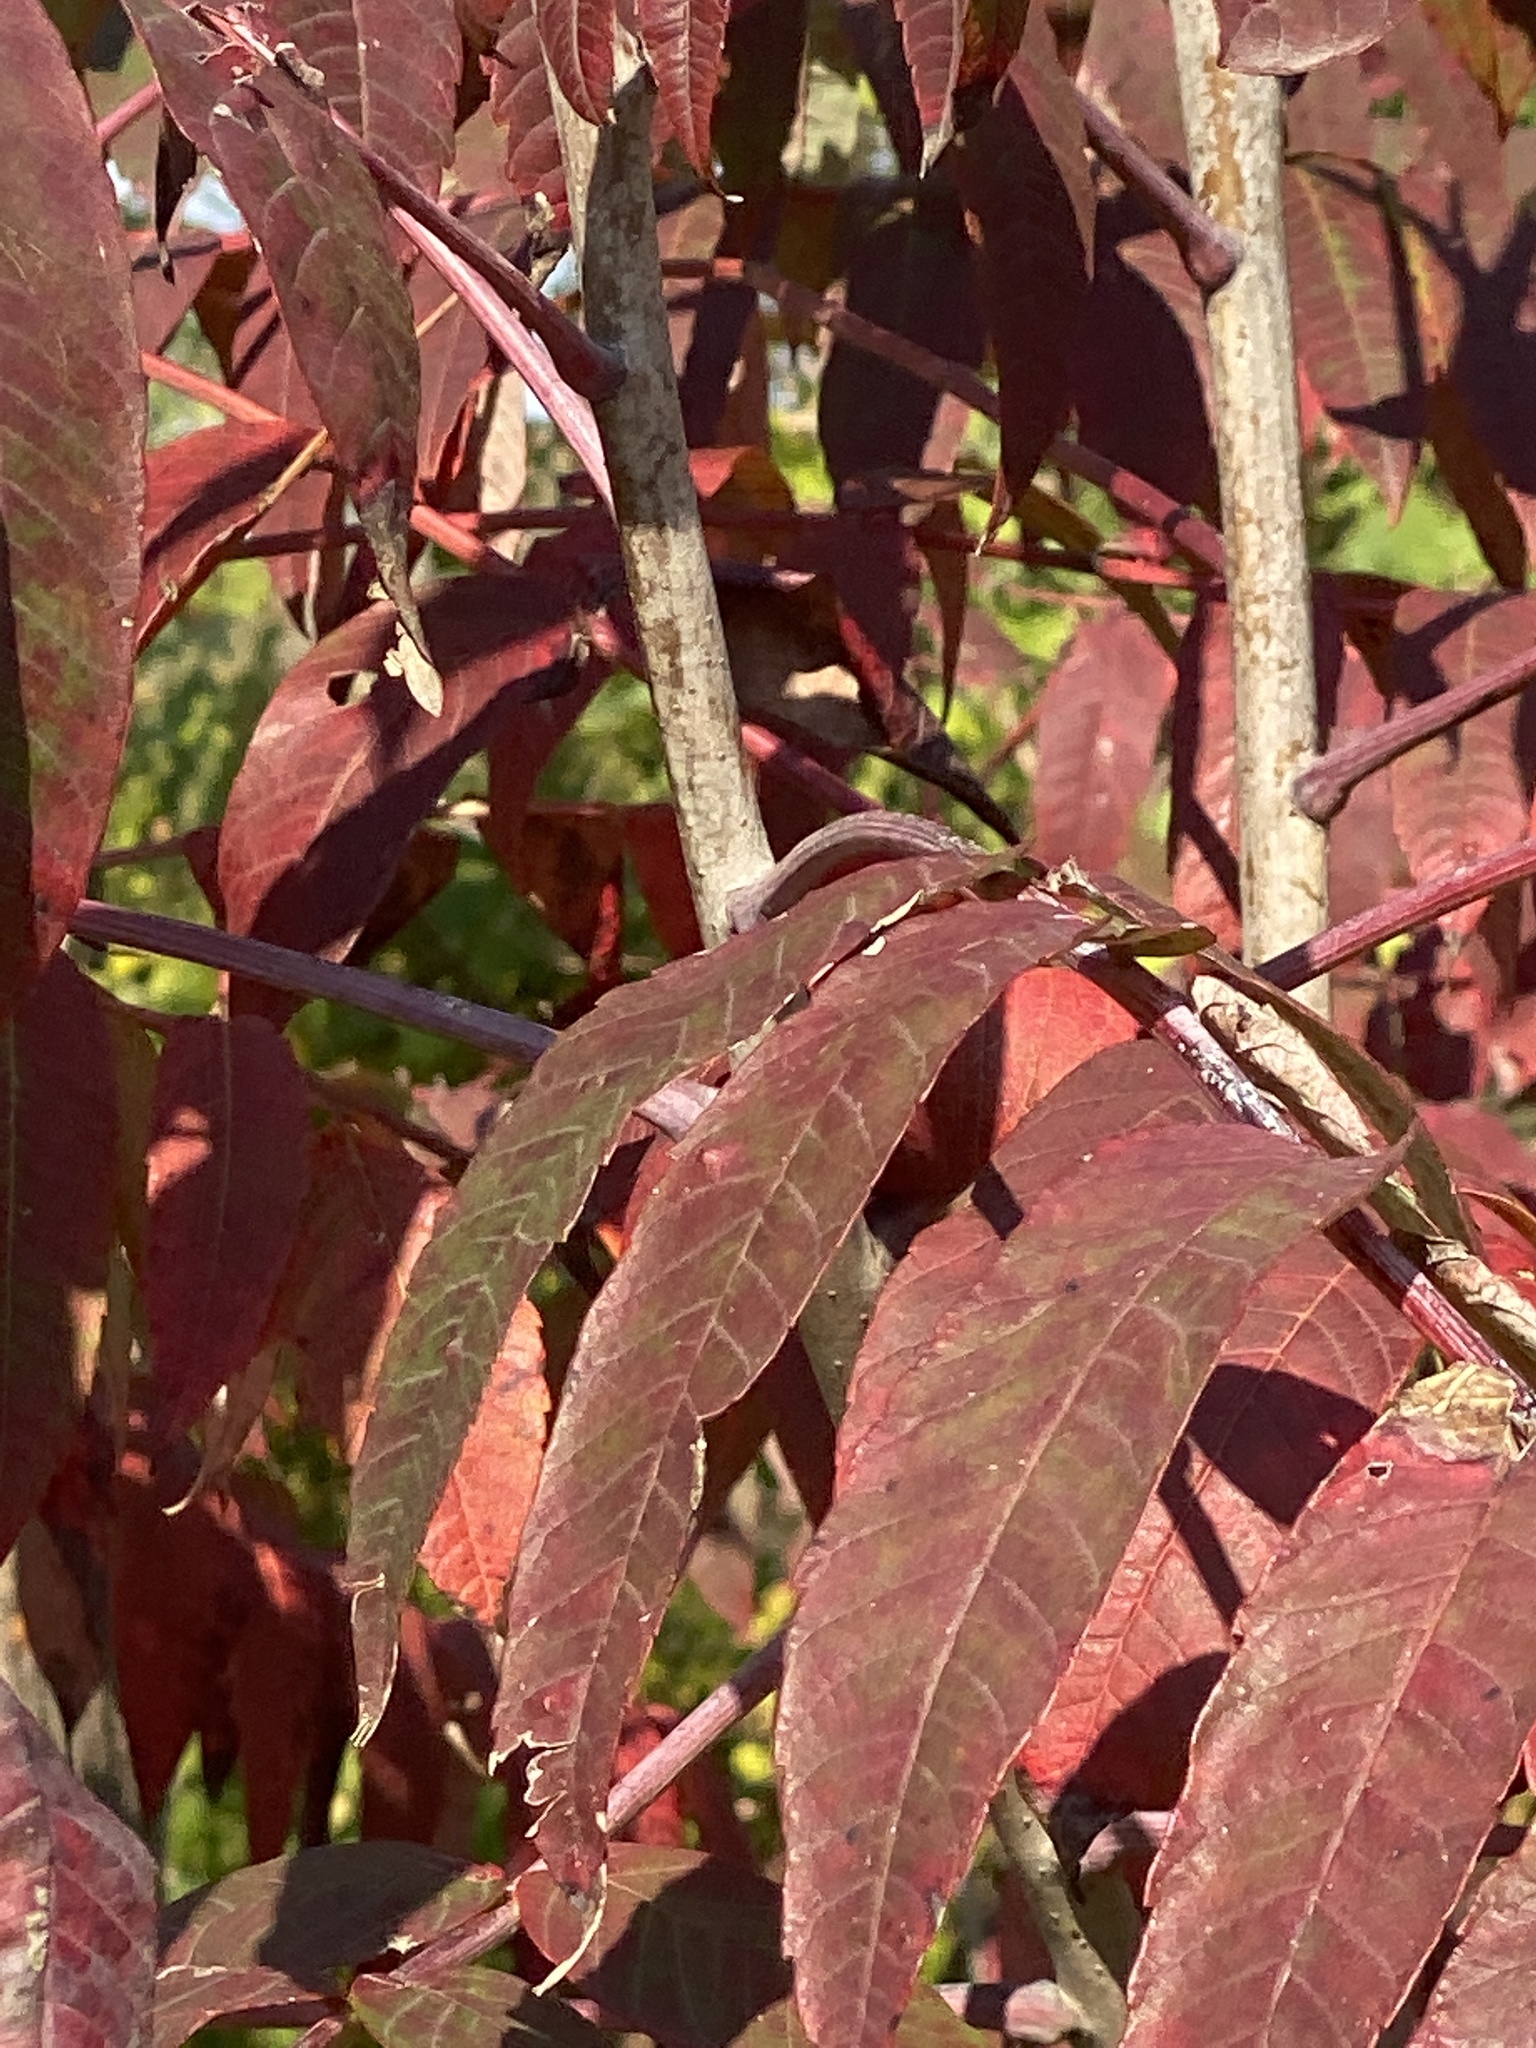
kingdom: Plantae
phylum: Tracheophyta
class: Magnoliopsida
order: Sapindales
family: Anacardiaceae
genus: Rhus
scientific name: Rhus glabra
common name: Scarlet sumac
